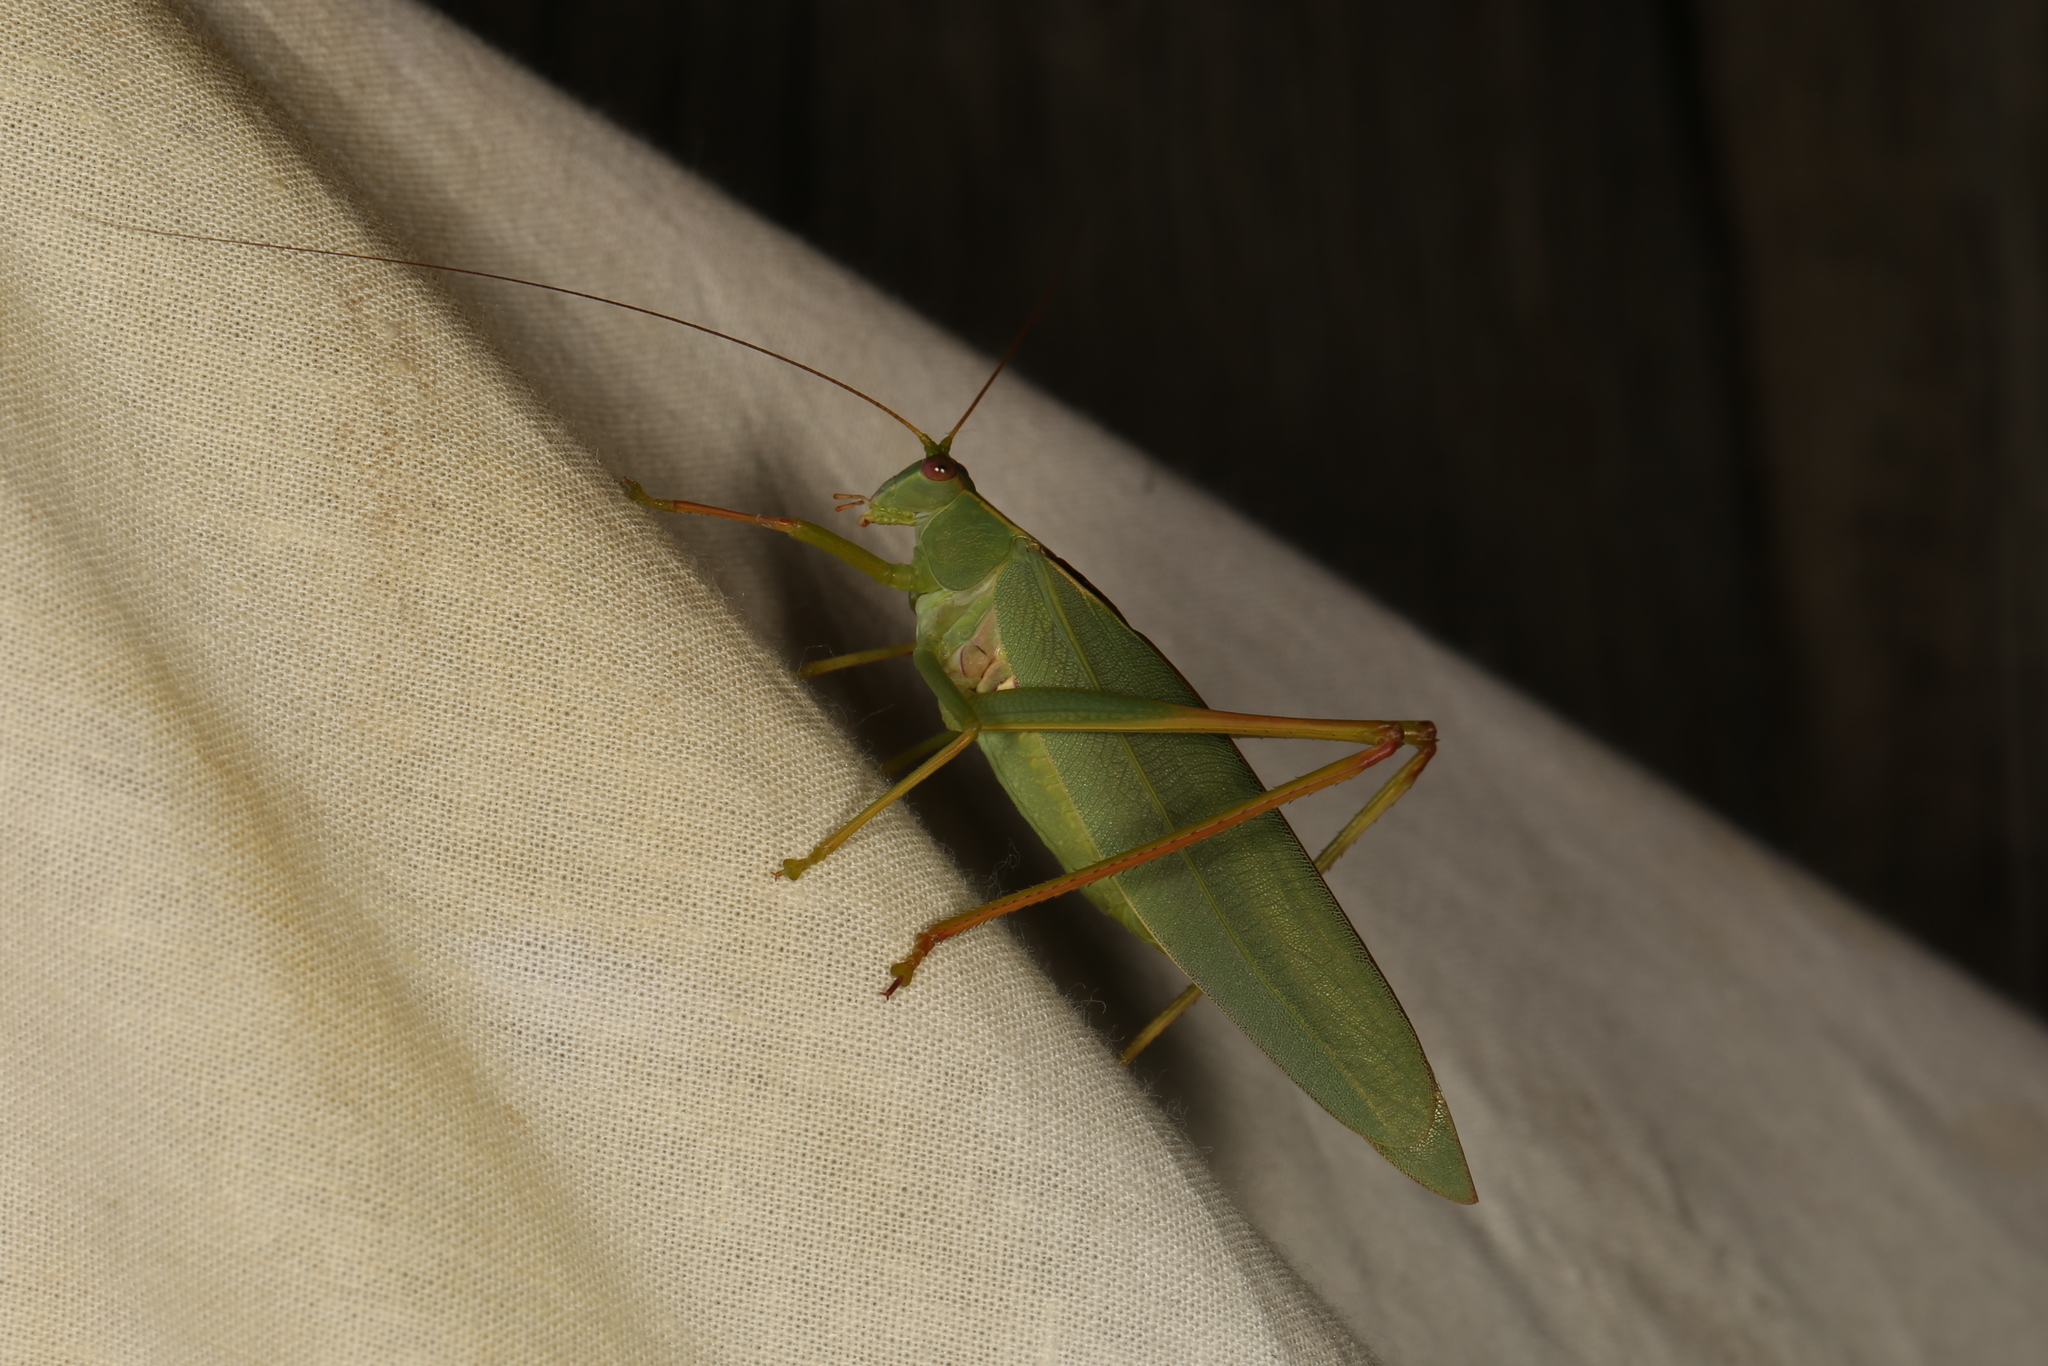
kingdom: Animalia
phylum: Arthropoda
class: Insecta
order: Orthoptera
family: Tettigoniidae
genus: Torbia
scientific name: Torbia viridissima
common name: Non-predaceous gum leaf katydid
